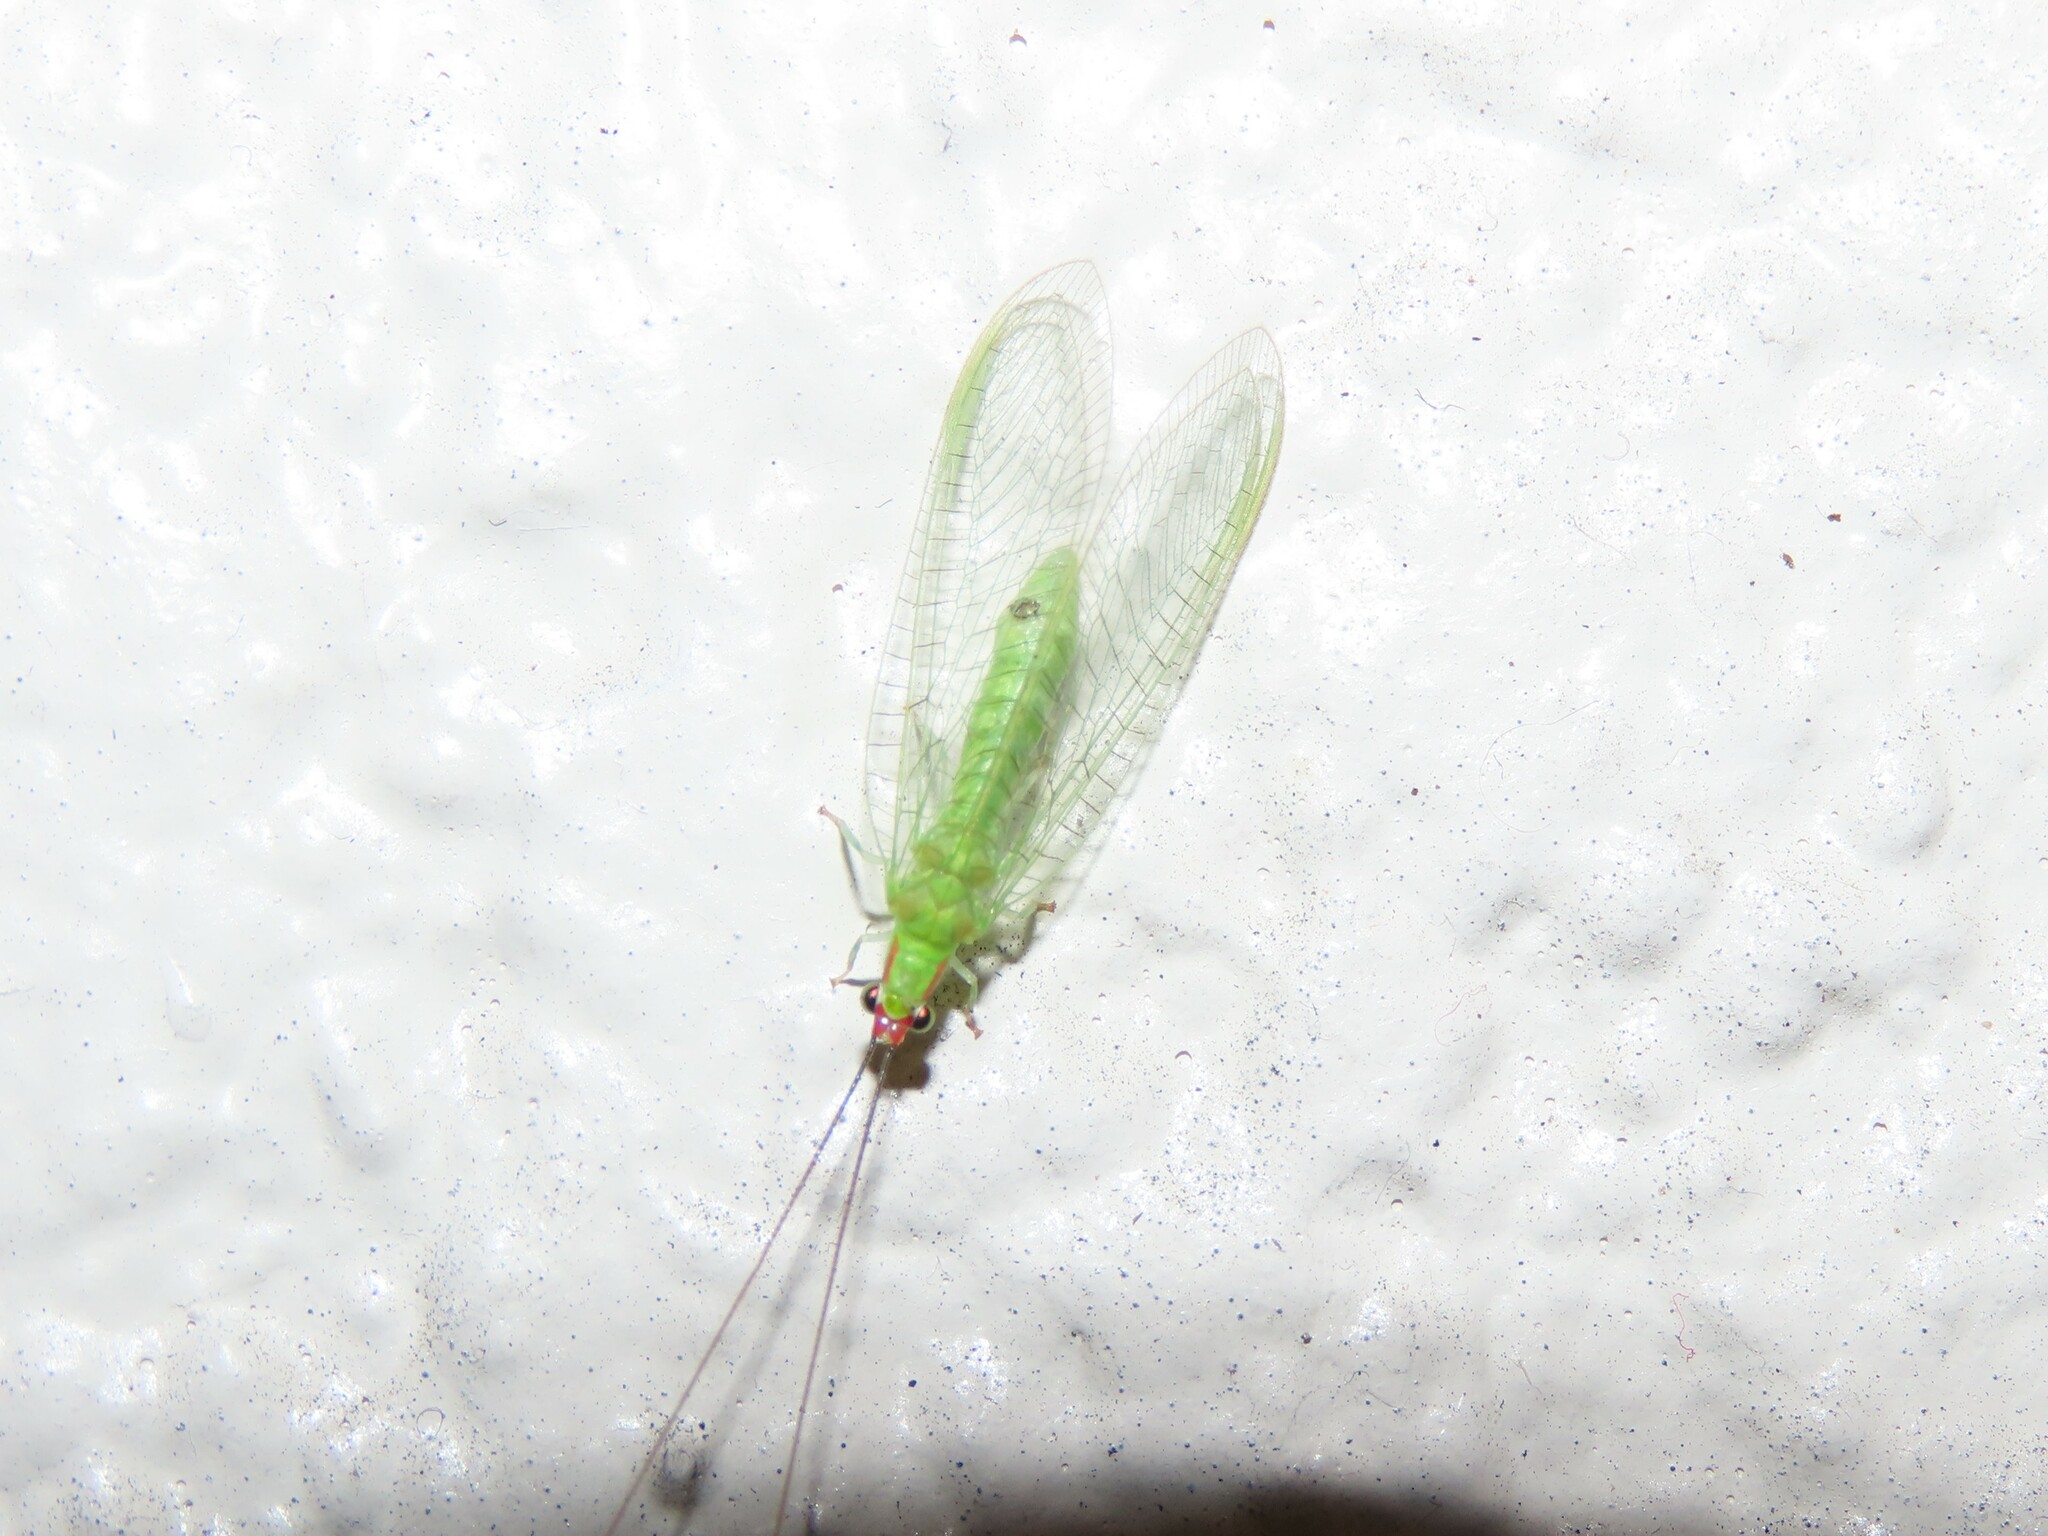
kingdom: Animalia
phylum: Arthropoda
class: Insecta
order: Neuroptera
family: Chrysopidae
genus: Ceraeochrysa
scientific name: Ceraeochrysa smithi
